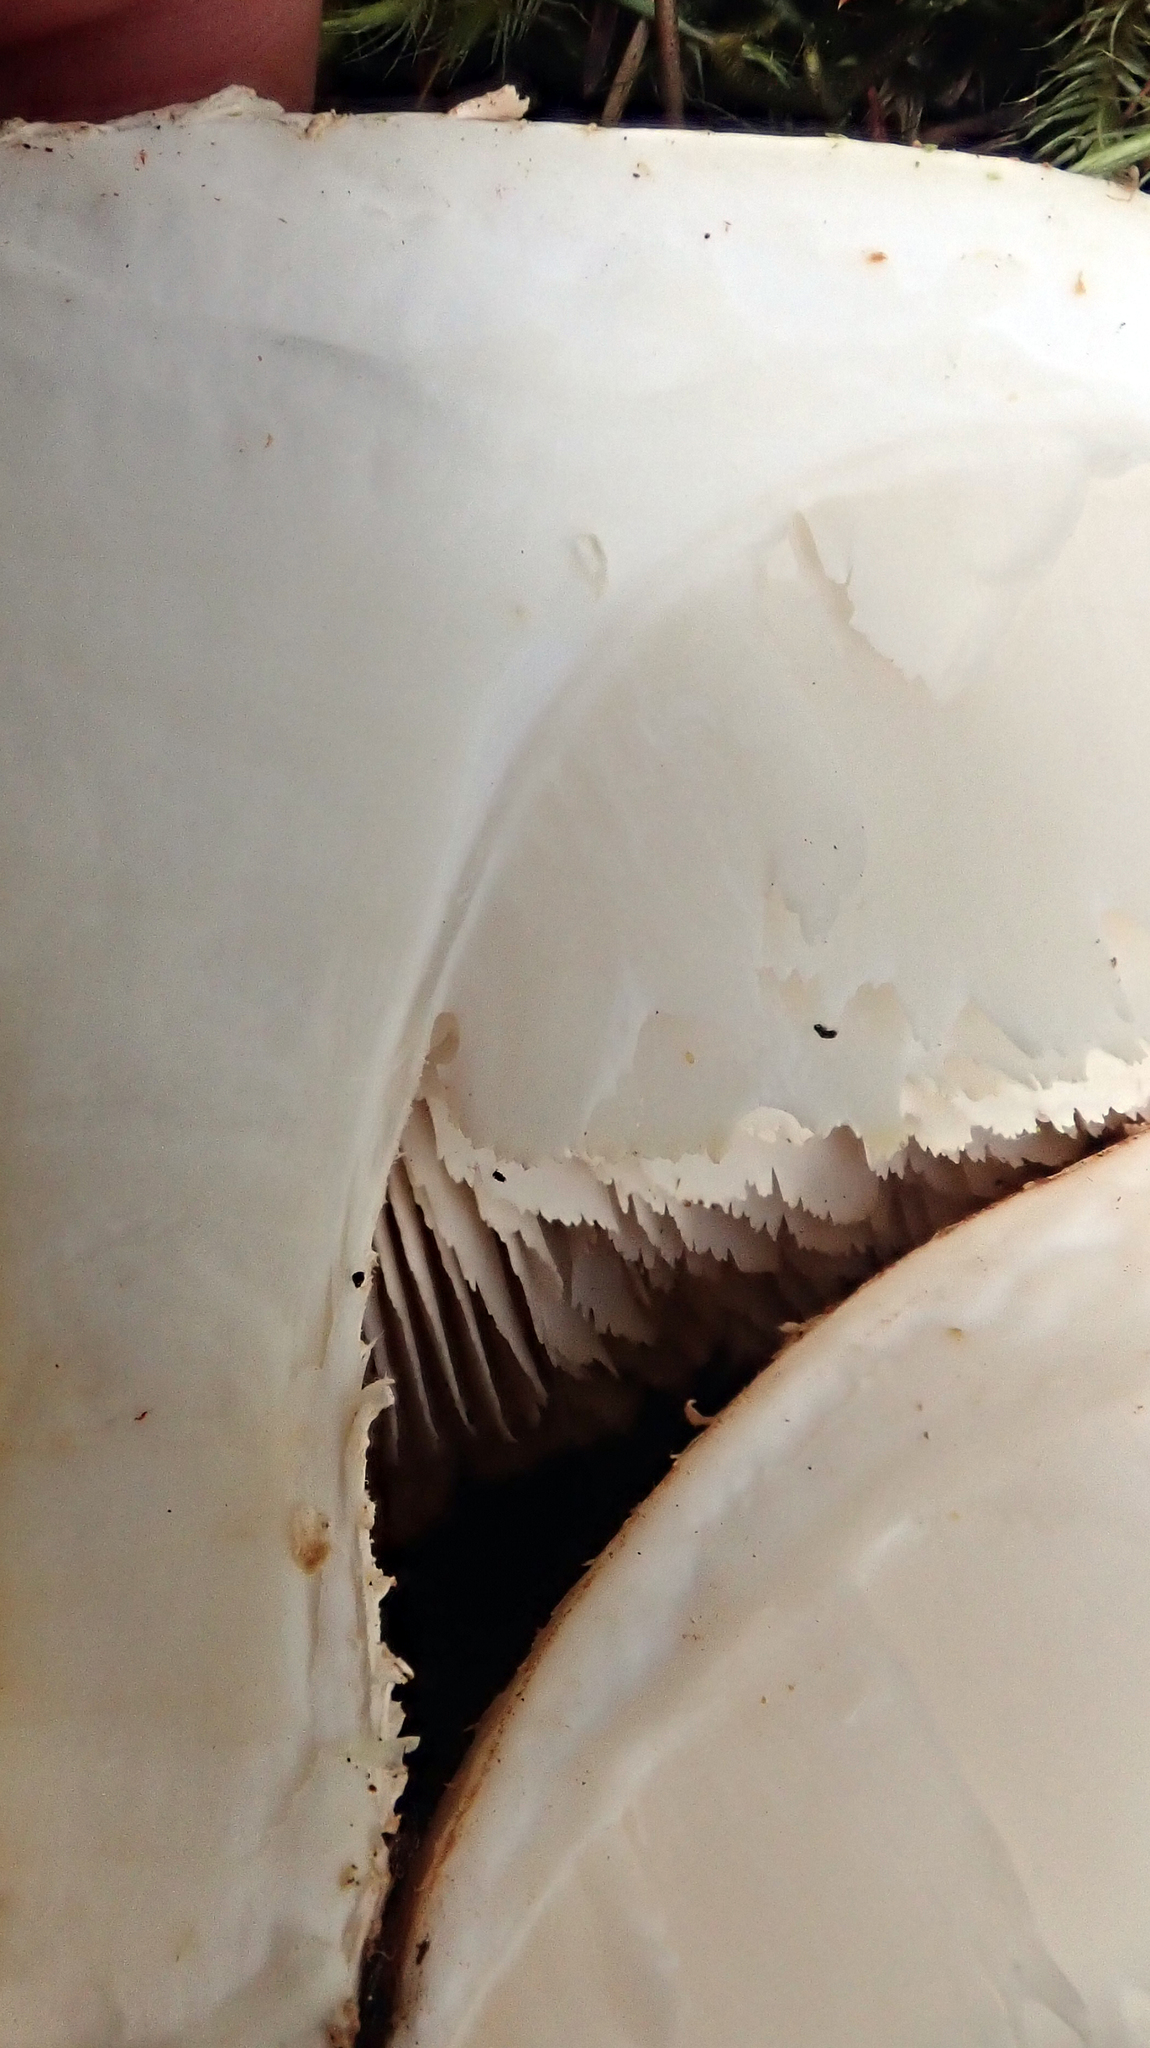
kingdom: Fungi
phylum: Basidiomycota
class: Agaricomycetes
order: Gloeophyllales
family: Gloeophyllaceae
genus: Neolentinus
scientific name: Neolentinus lepideus
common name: Scaly sawgill
